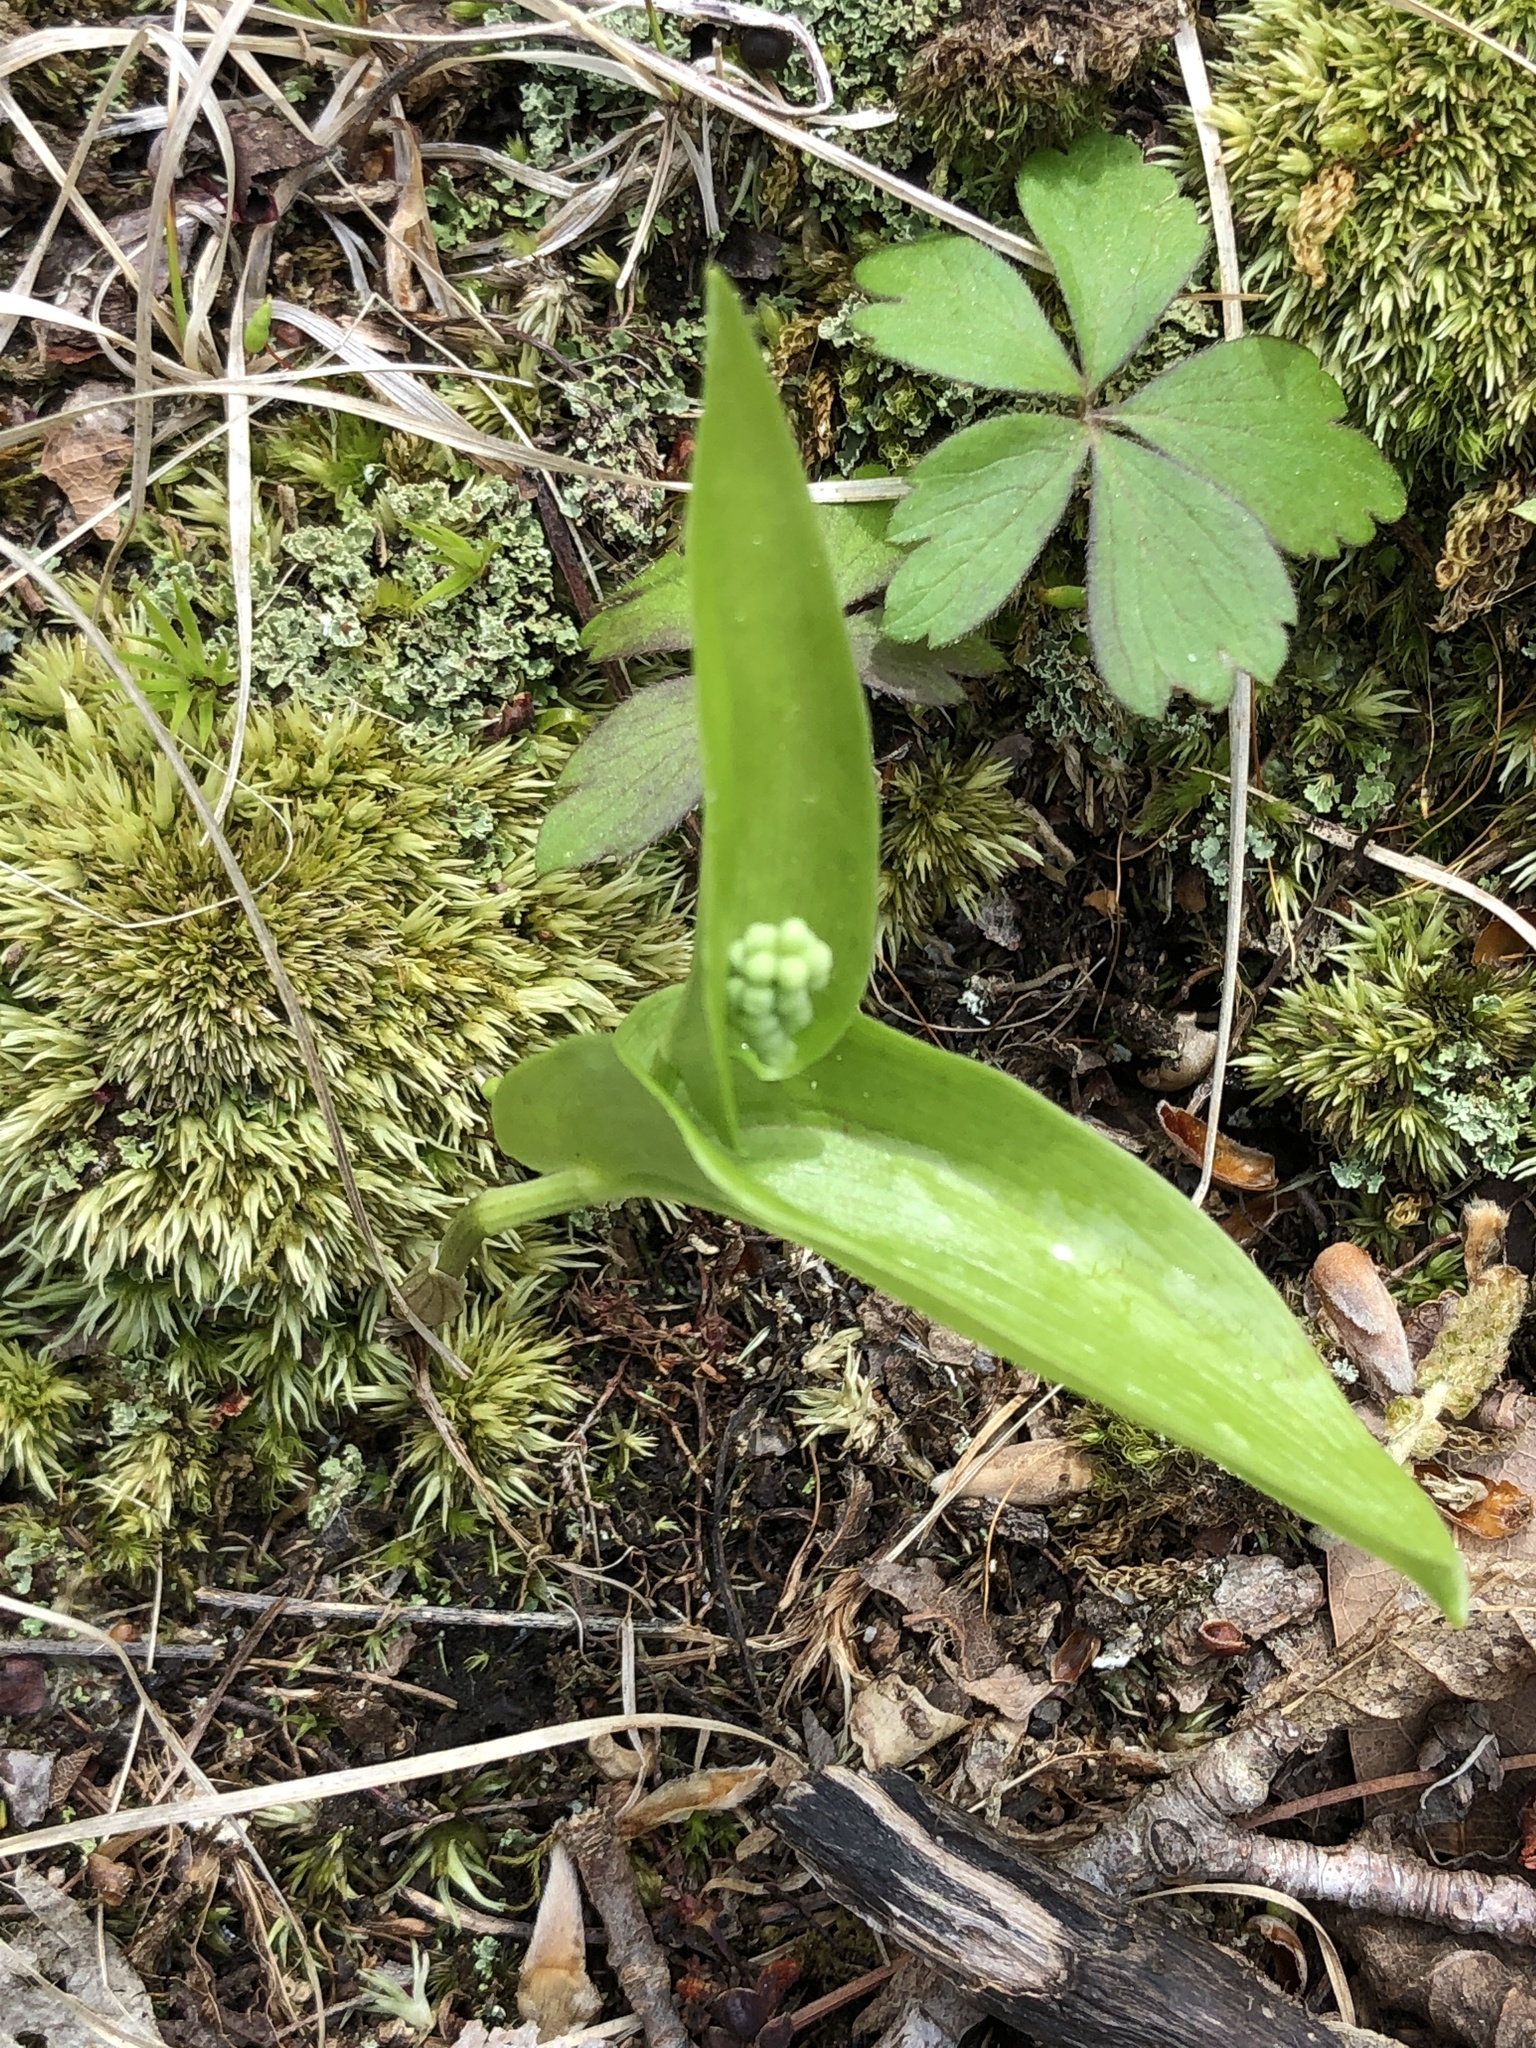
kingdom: Plantae
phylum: Tracheophyta
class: Liliopsida
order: Asparagales
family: Asparagaceae
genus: Maianthemum
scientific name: Maianthemum canadense
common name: False lily-of-the-valley
